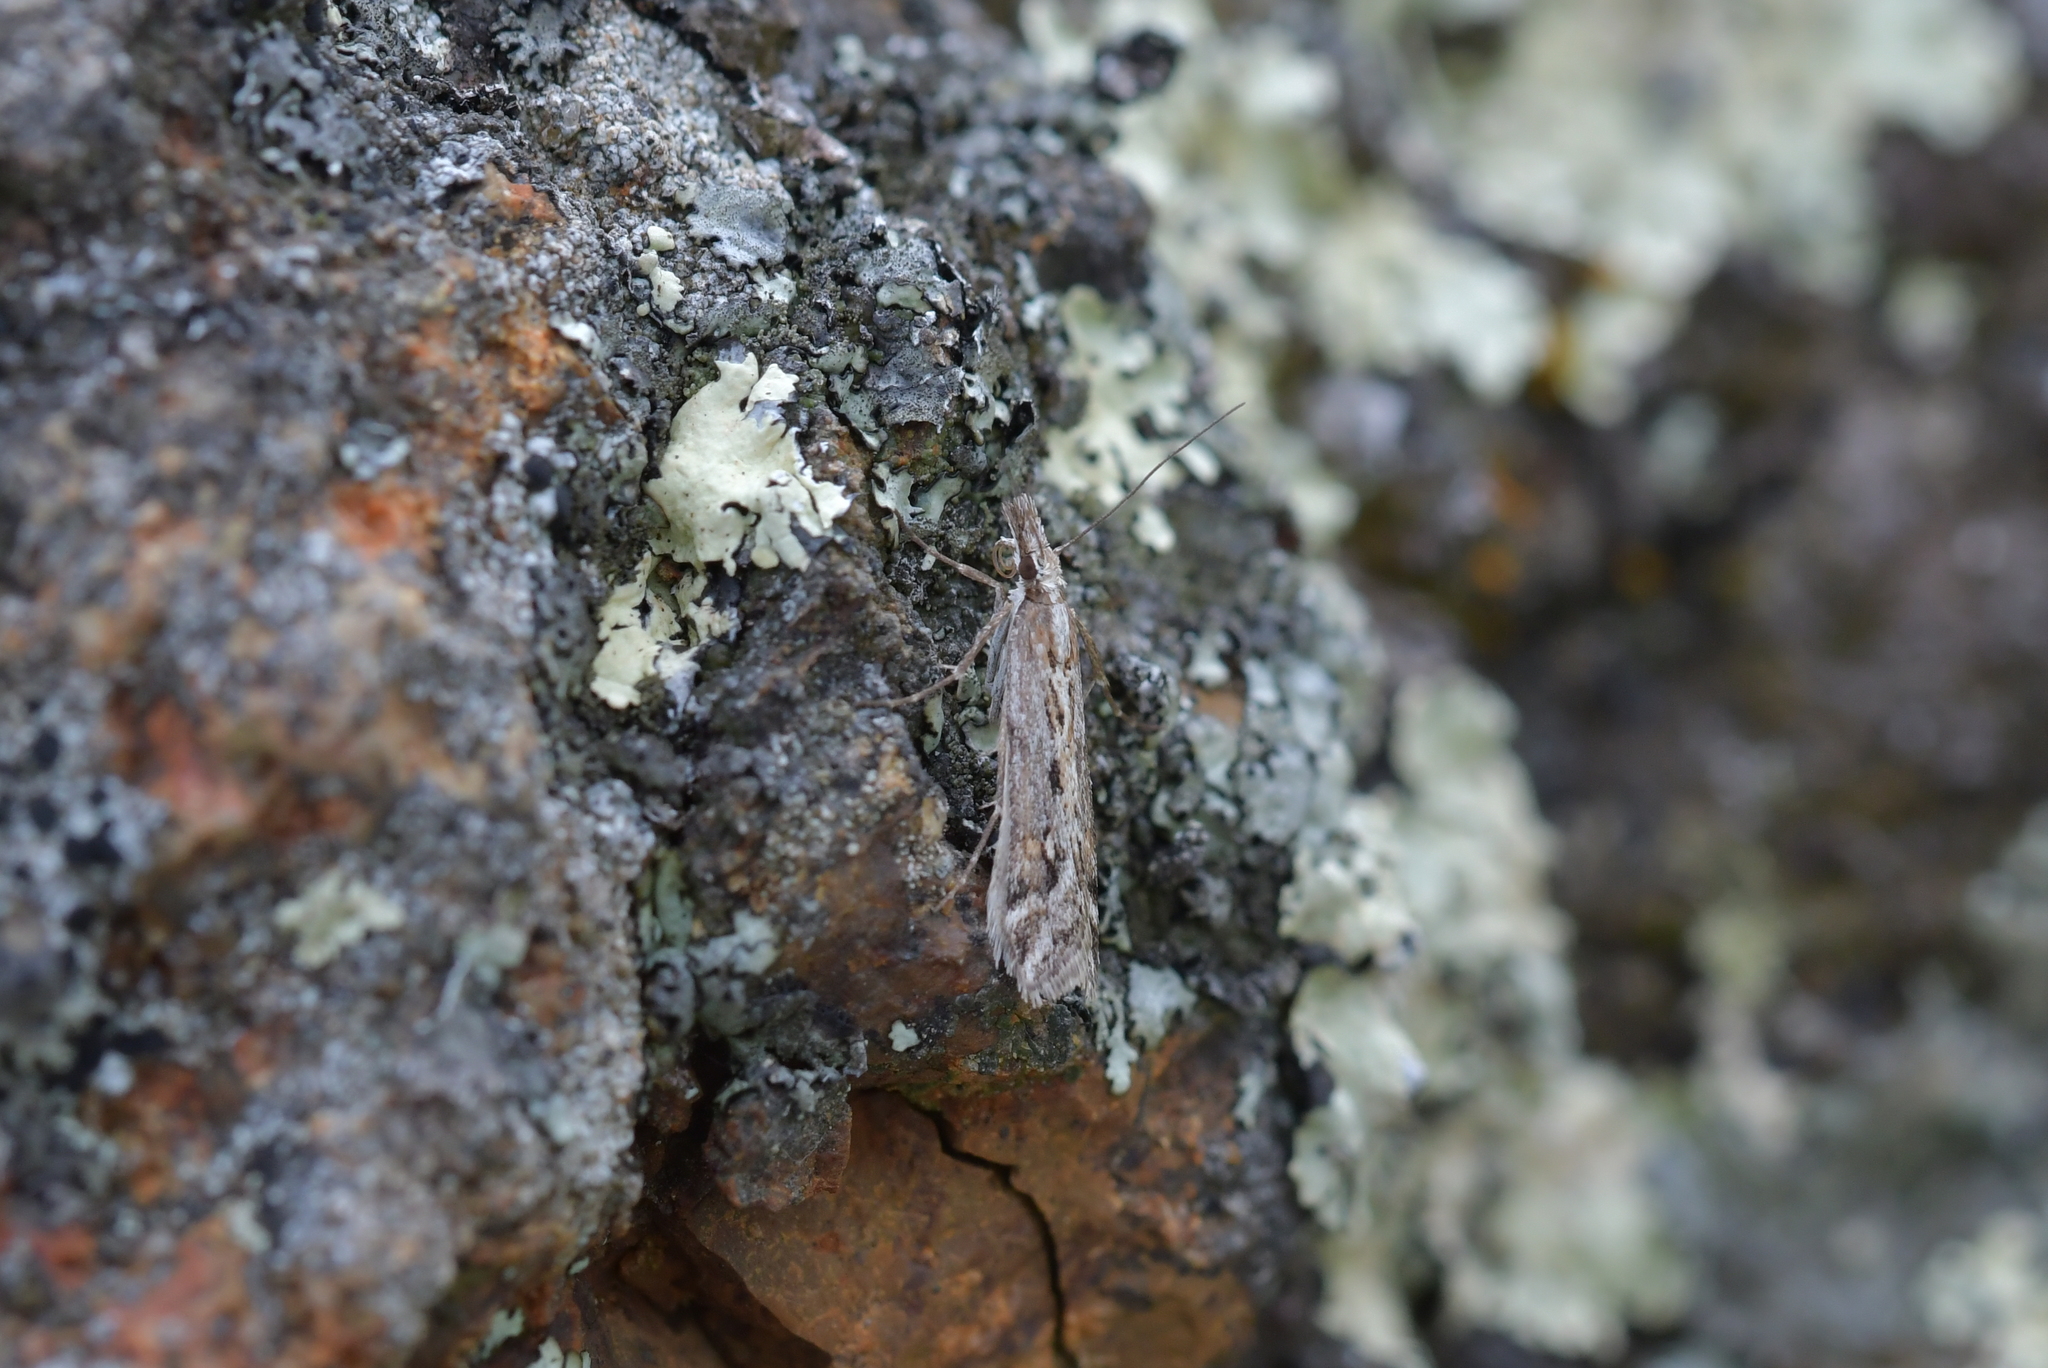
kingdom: Animalia
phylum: Arthropoda
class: Insecta
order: Lepidoptera
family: Crambidae
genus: Scoparia
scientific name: Scoparia exilis
